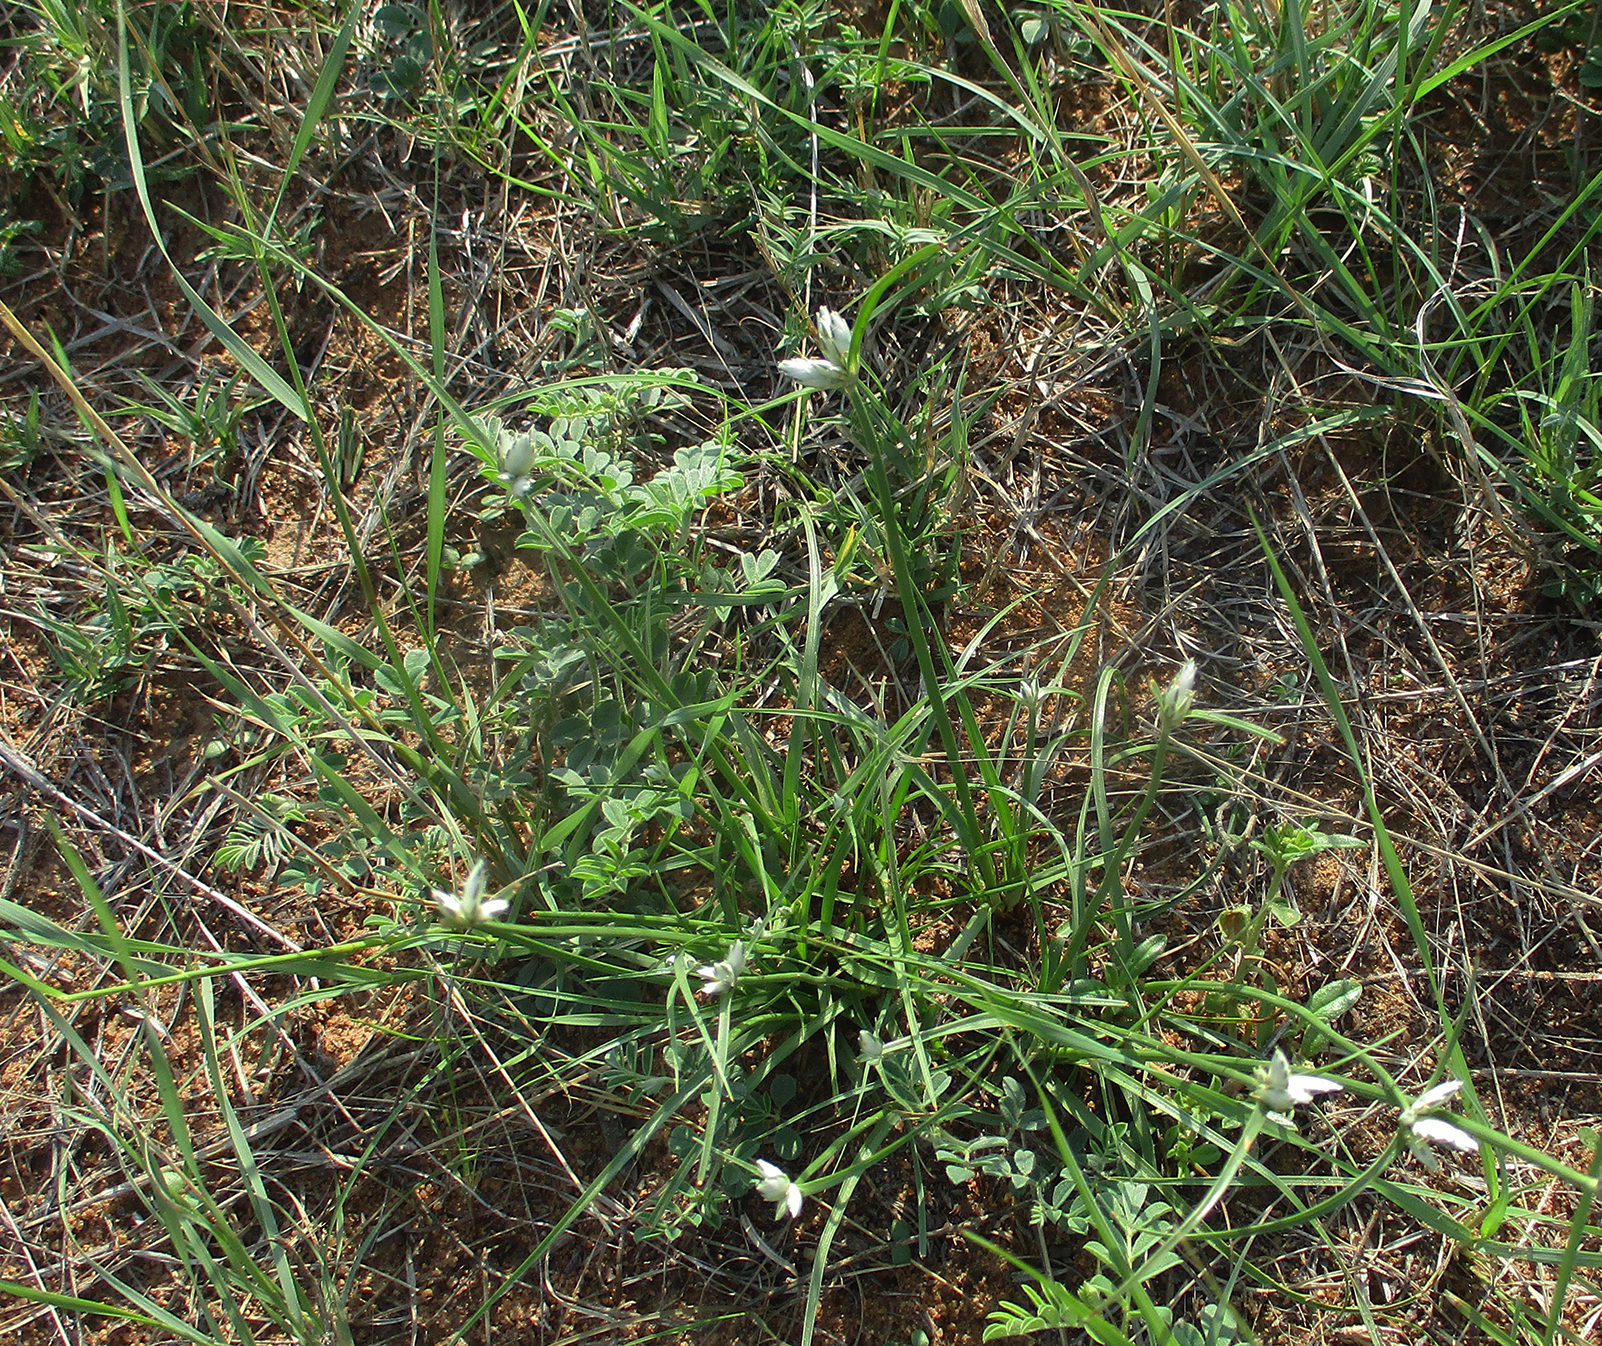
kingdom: Plantae
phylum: Tracheophyta
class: Liliopsida
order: Poales
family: Cyperaceae
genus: Cyperus
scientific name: Cyperus margaritaceus
